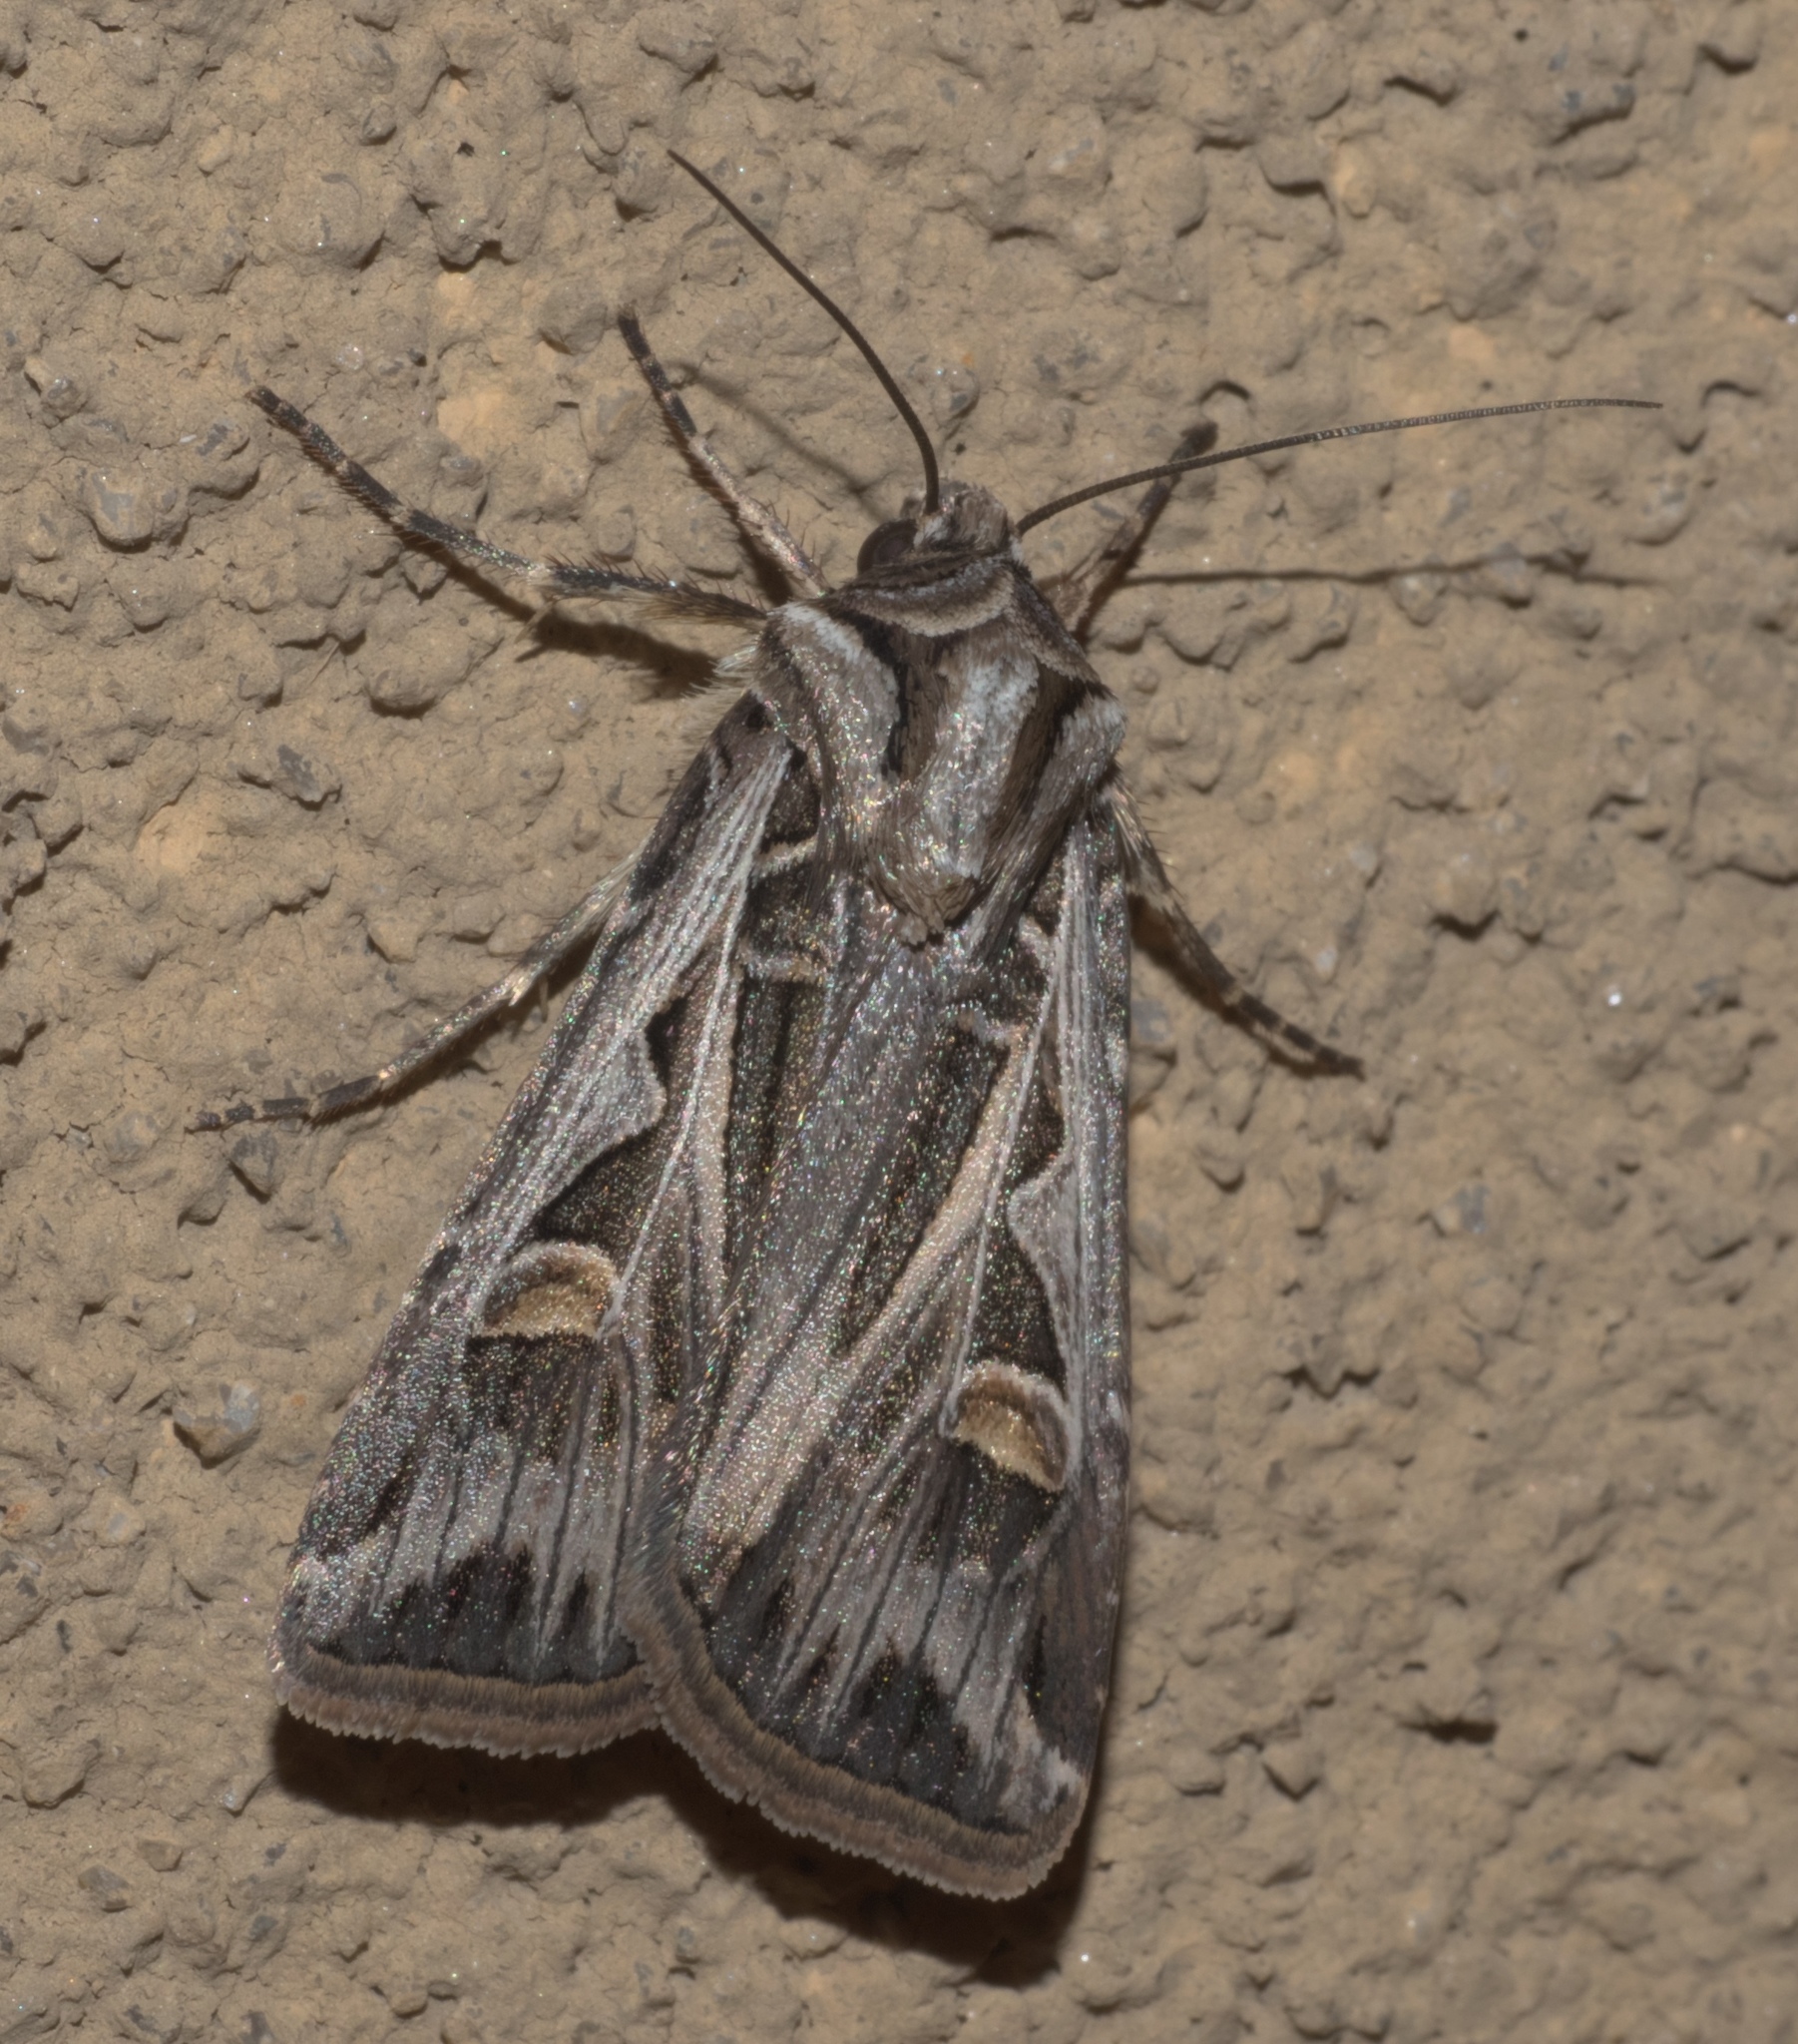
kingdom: Animalia
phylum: Arthropoda
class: Insecta
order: Lepidoptera
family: Noctuidae
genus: Feltia
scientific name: Feltia jaculifera
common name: Dingy cutworm moth
